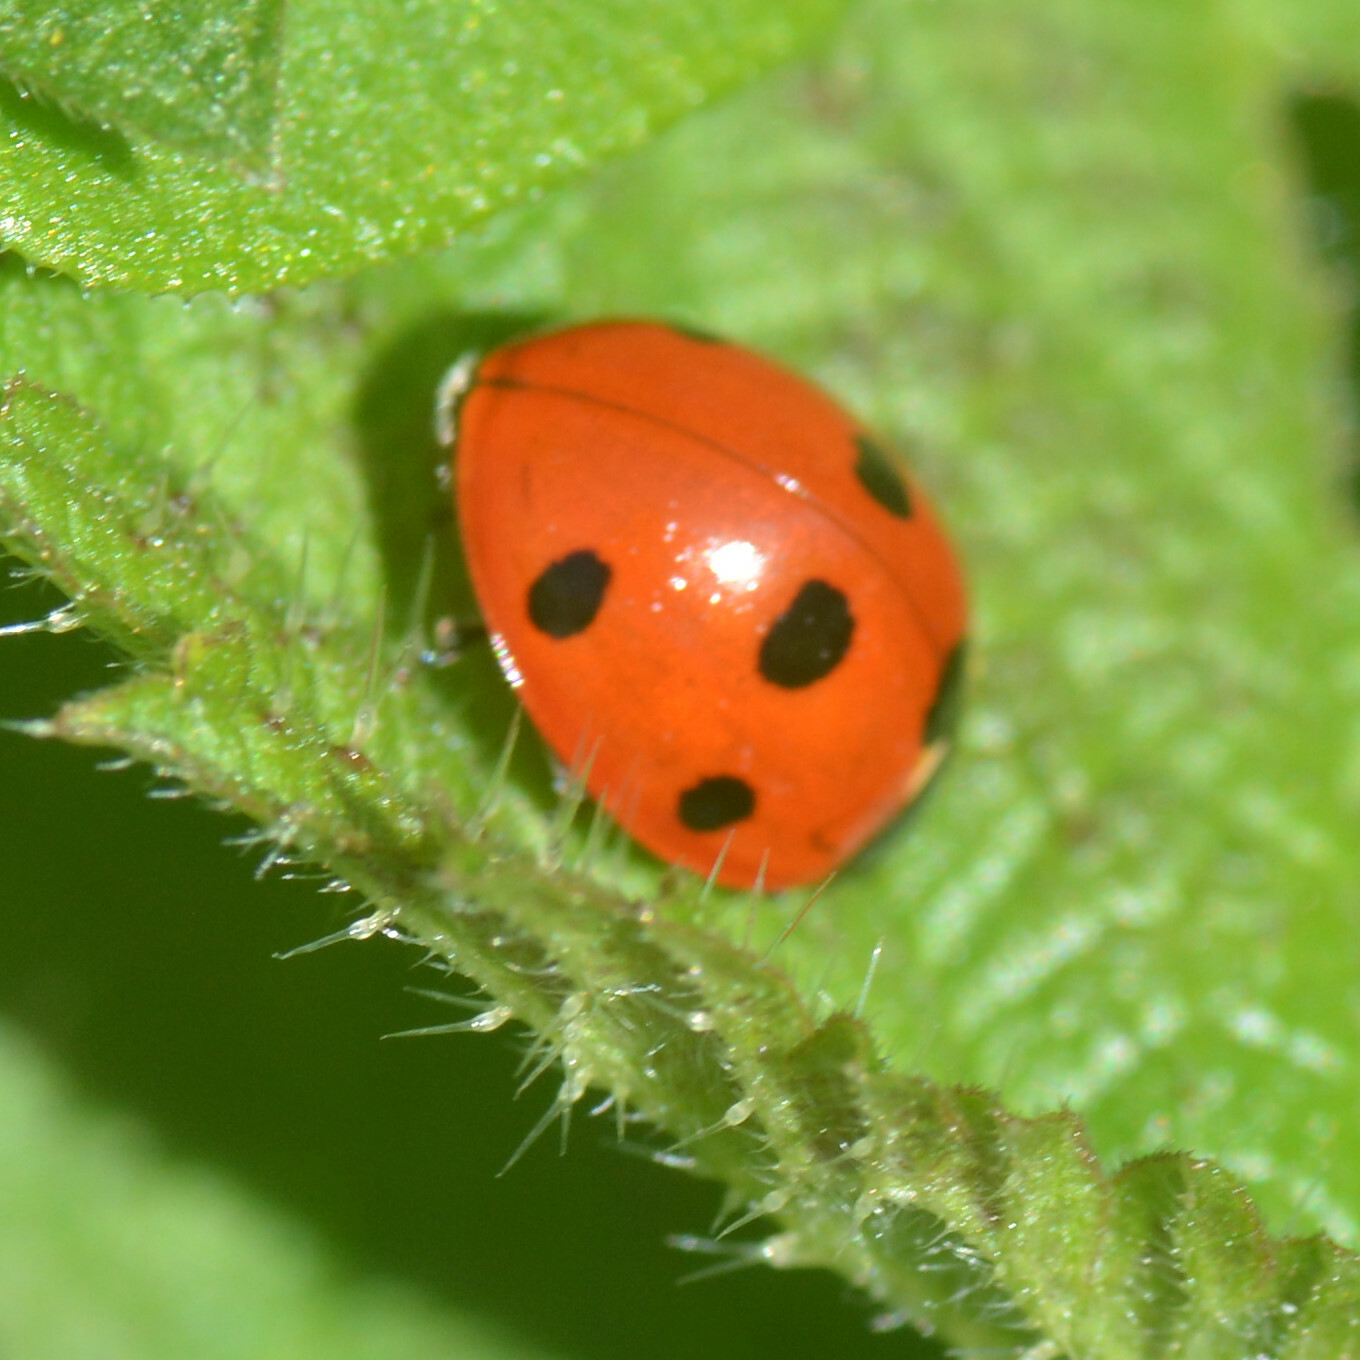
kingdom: Animalia
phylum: Arthropoda
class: Insecta
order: Coleoptera
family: Coccinellidae
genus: Coccinella
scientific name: Coccinella septempunctata
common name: Sevenspotted lady beetle
